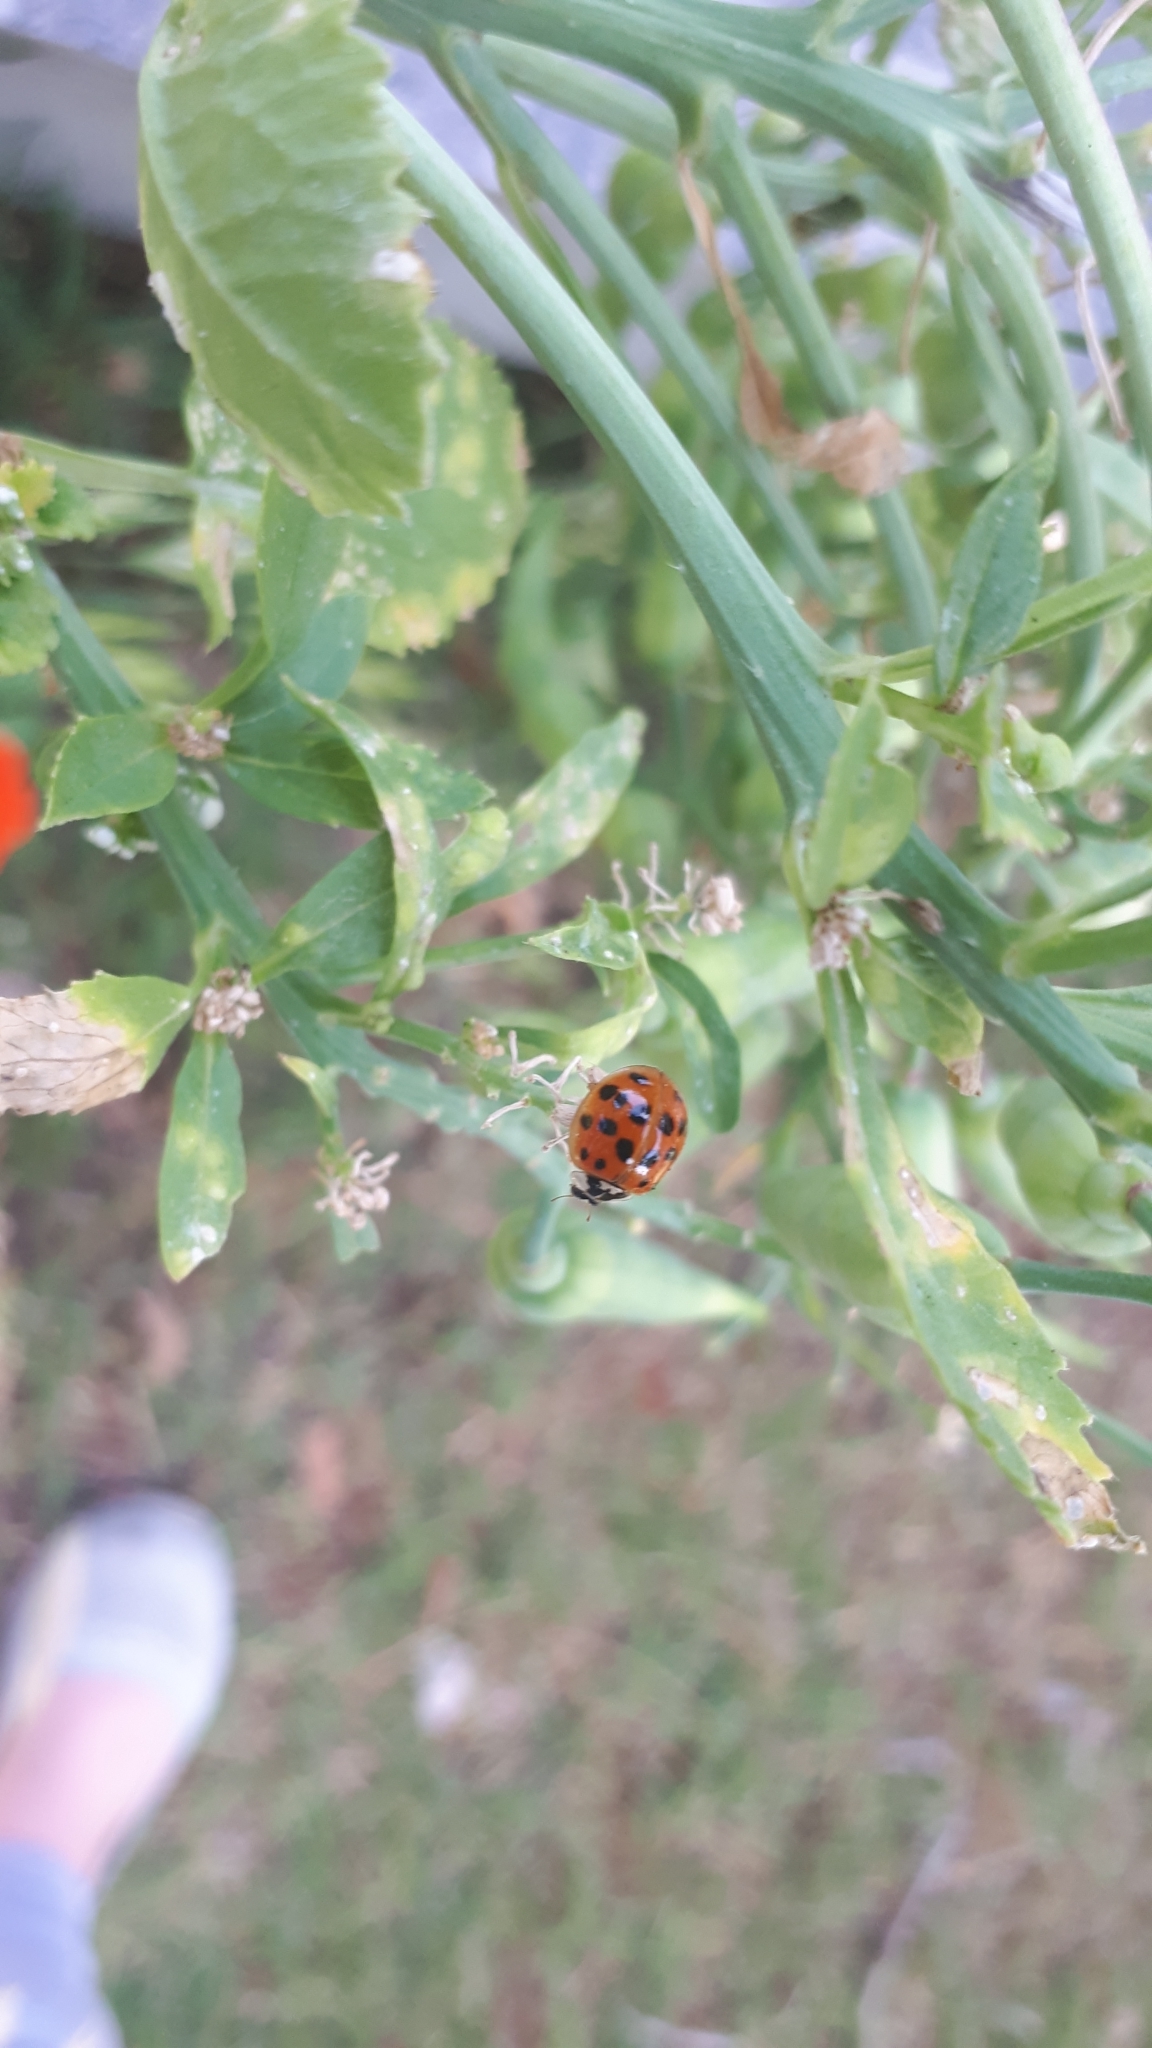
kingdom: Animalia
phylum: Arthropoda
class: Insecta
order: Coleoptera
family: Coccinellidae
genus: Harmonia
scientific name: Harmonia axyridis
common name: Harlequin ladybird
